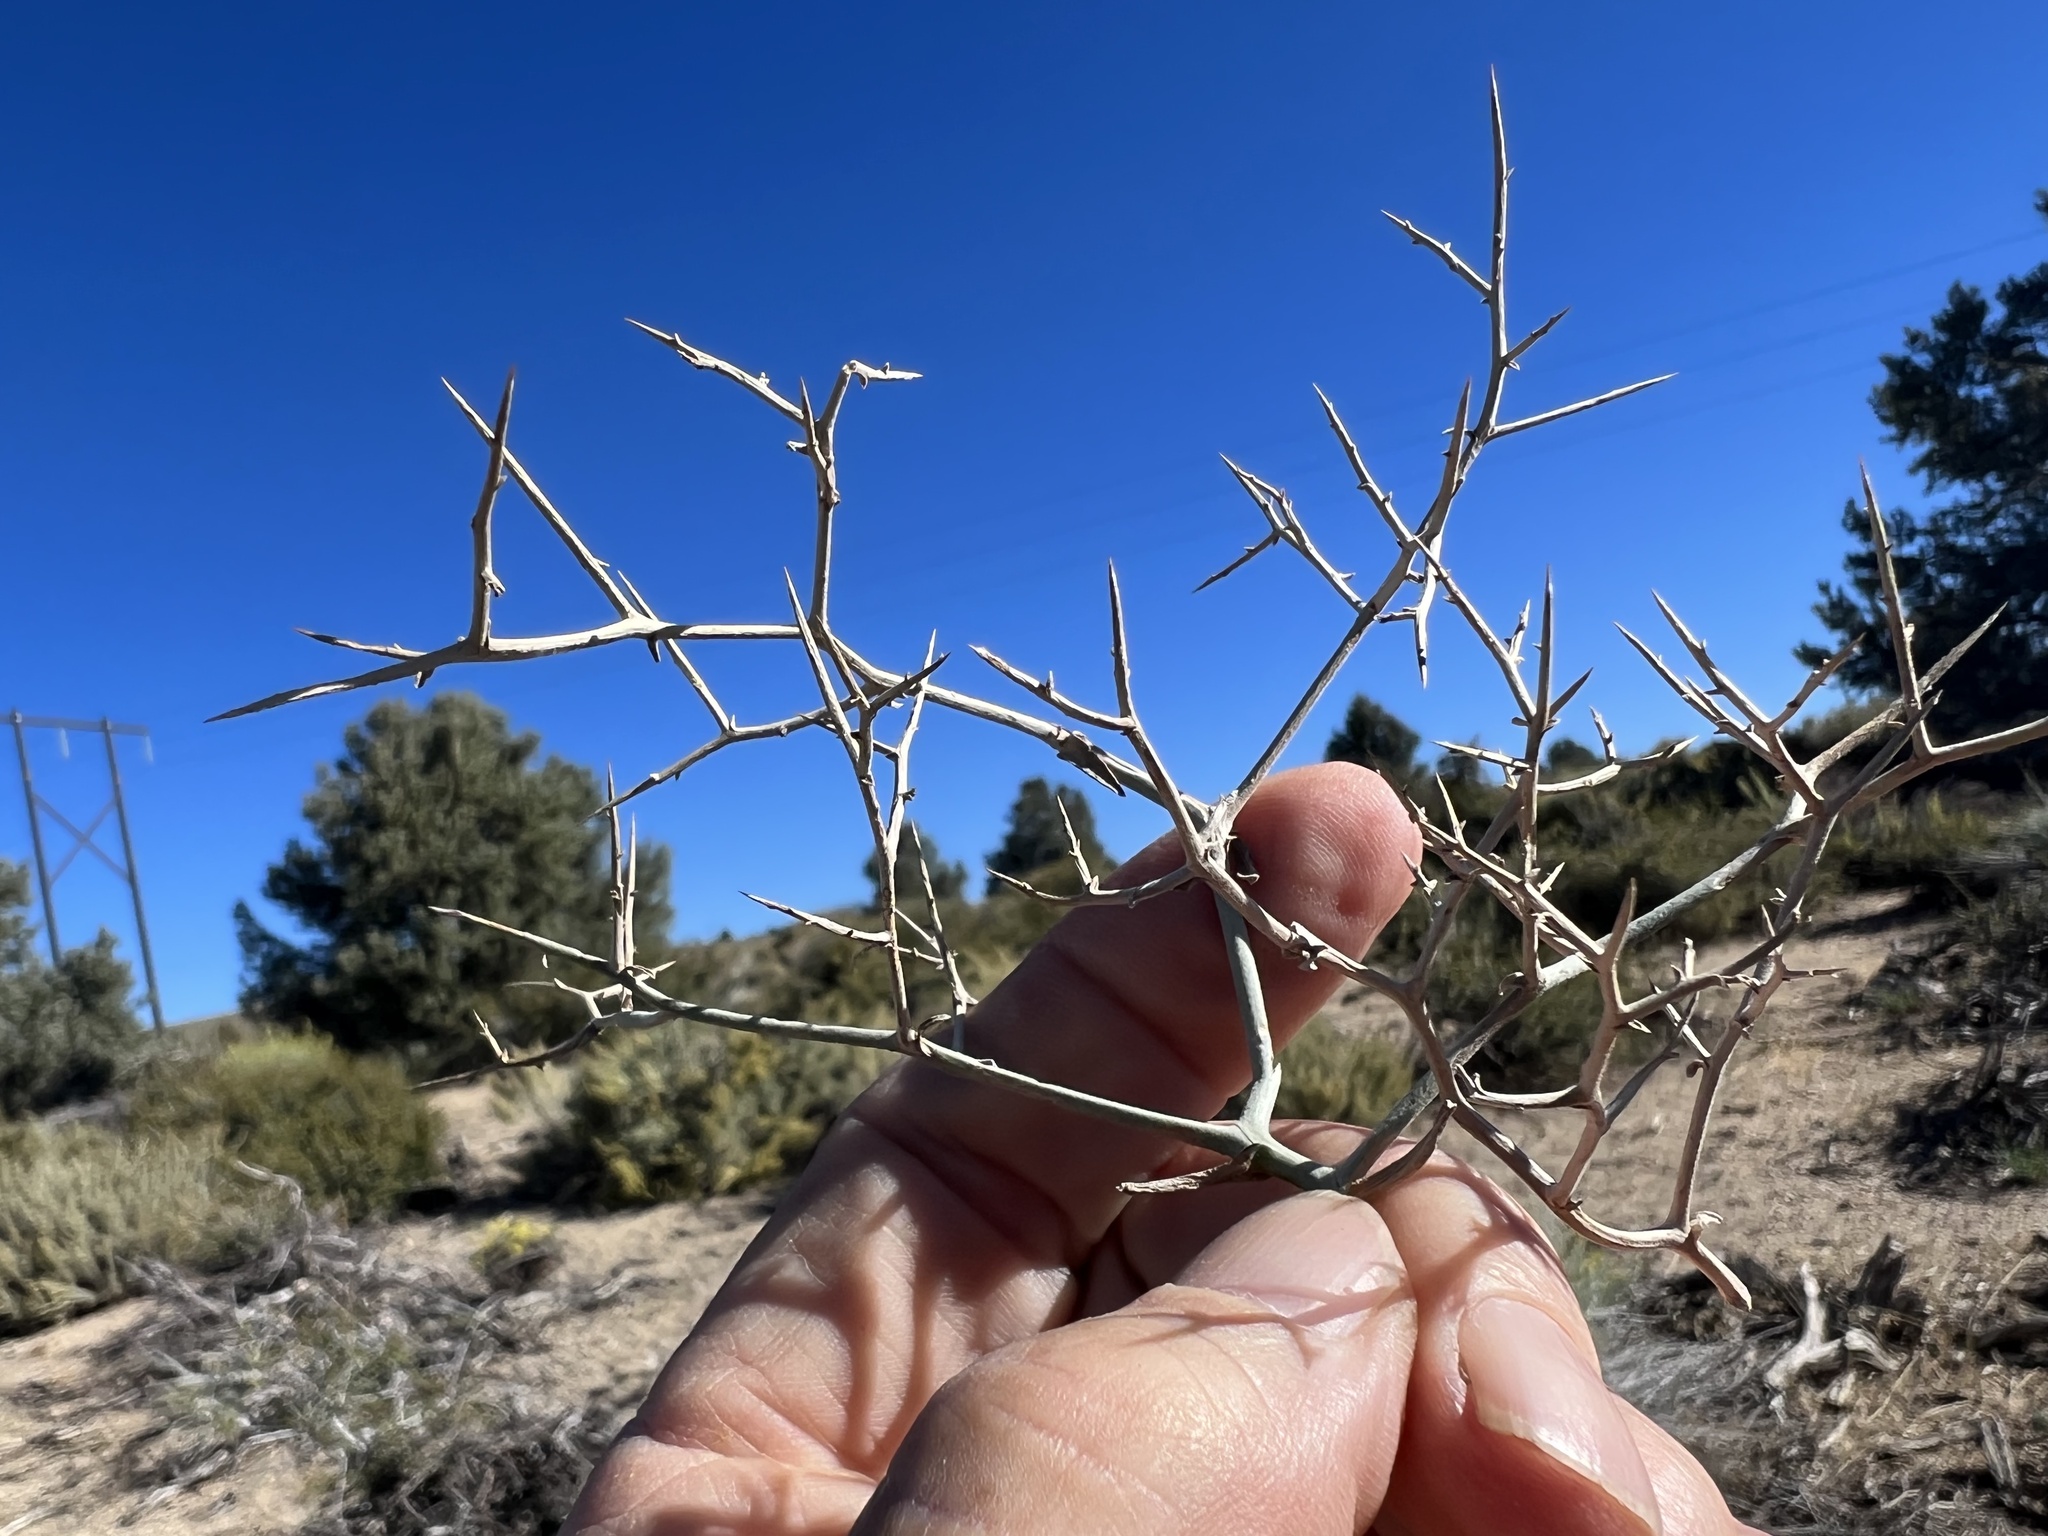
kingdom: Plantae
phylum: Tracheophyta
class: Magnoliopsida
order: Asterales
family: Asteraceae
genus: Pleiacanthus
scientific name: Pleiacanthus spinosus
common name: Thorny skeleton-weed
